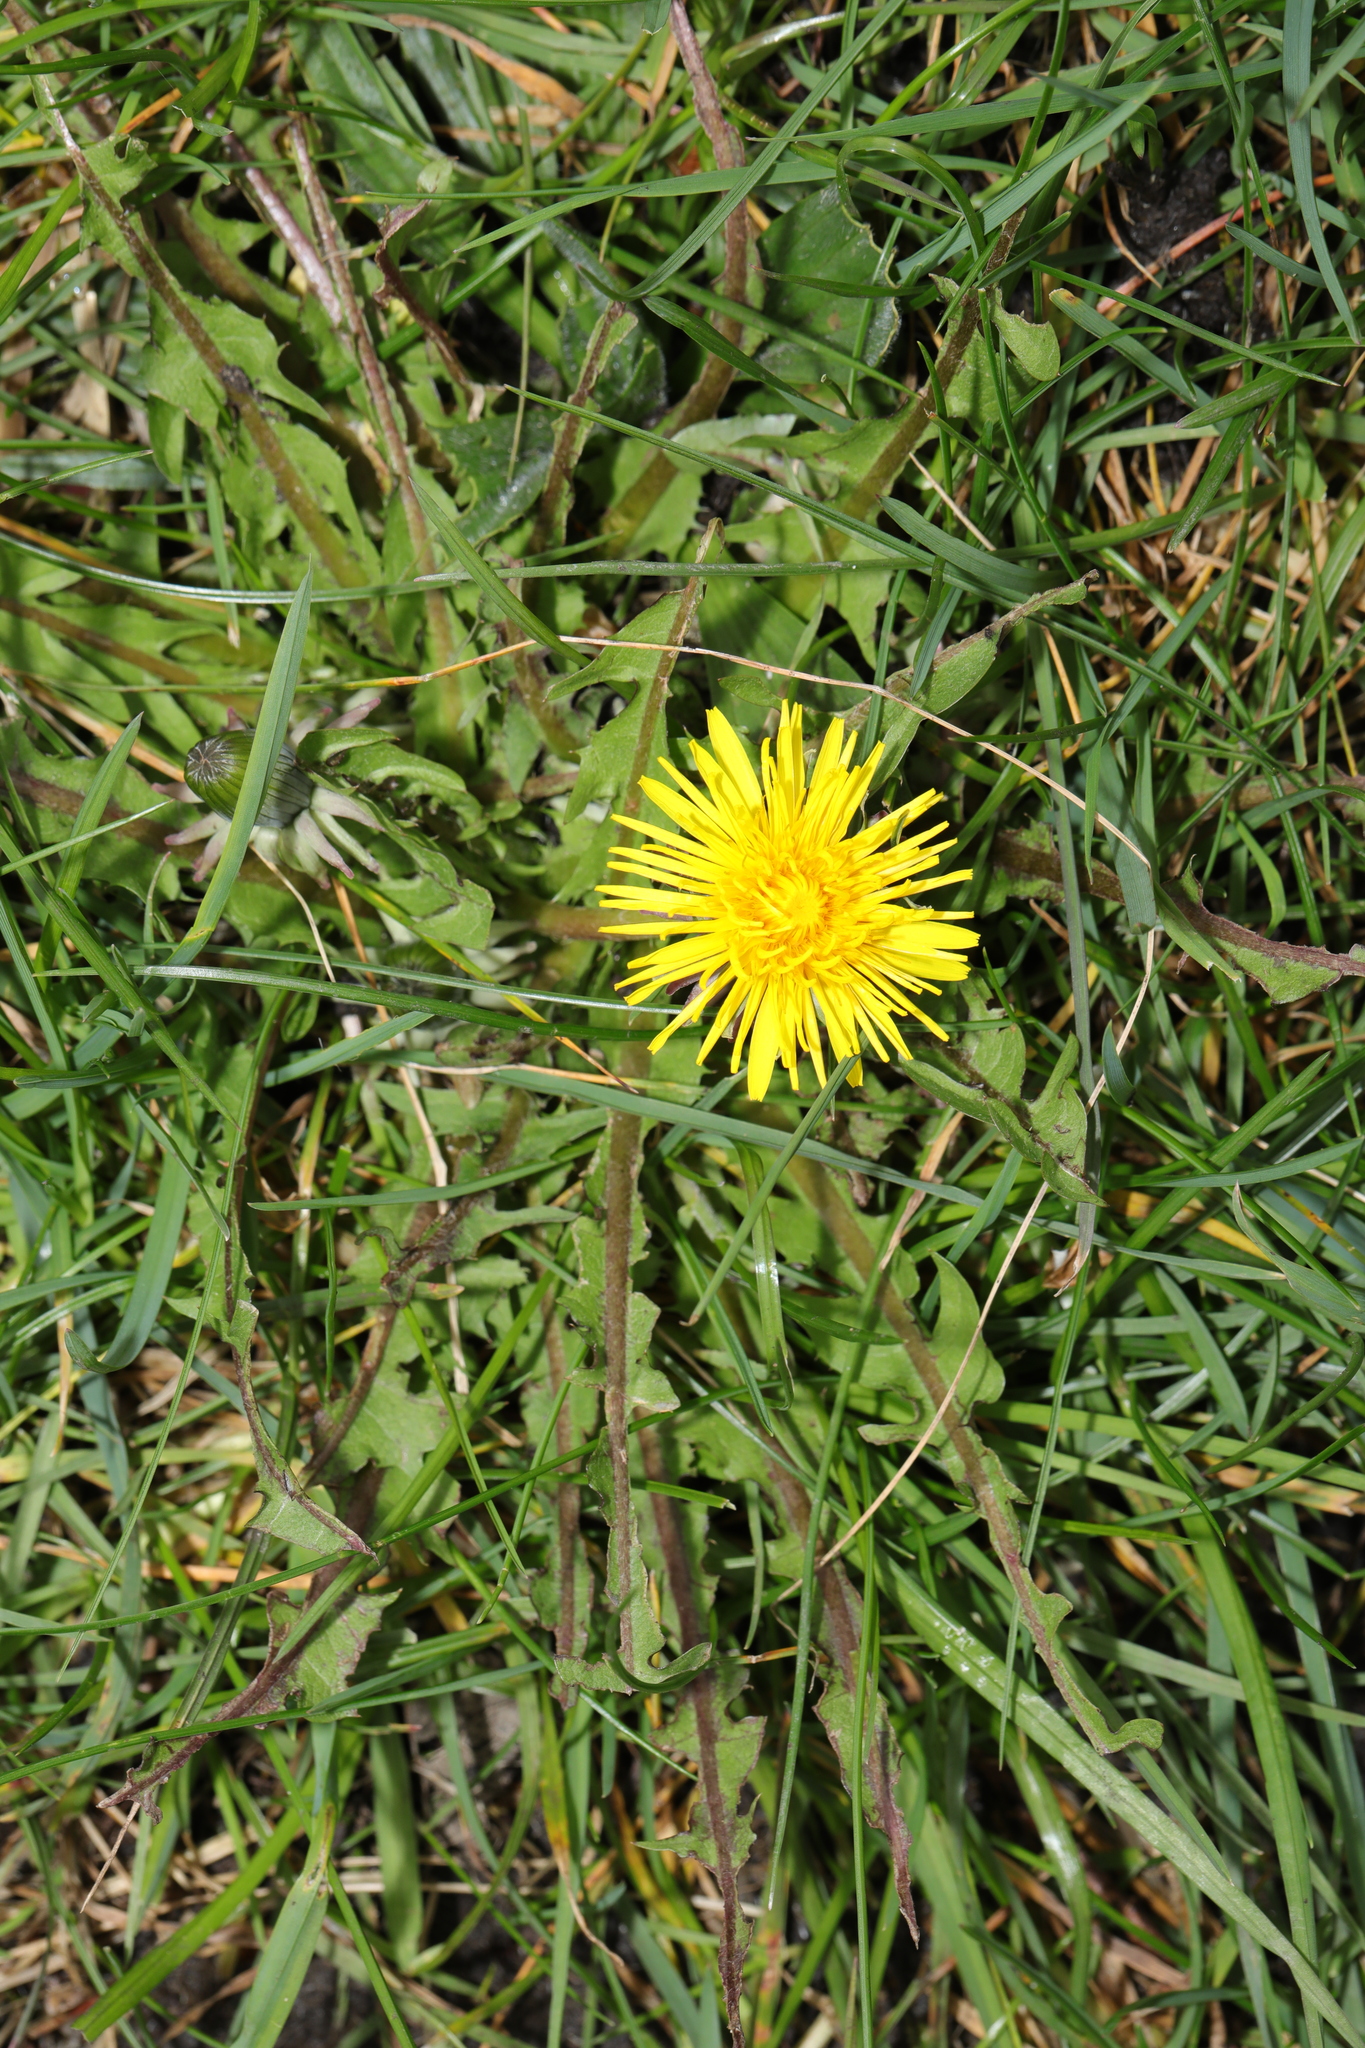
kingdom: Plantae
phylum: Tracheophyta
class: Magnoliopsida
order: Asterales
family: Asteraceae
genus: Taraxacum
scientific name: Taraxacum officinale
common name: Common dandelion
